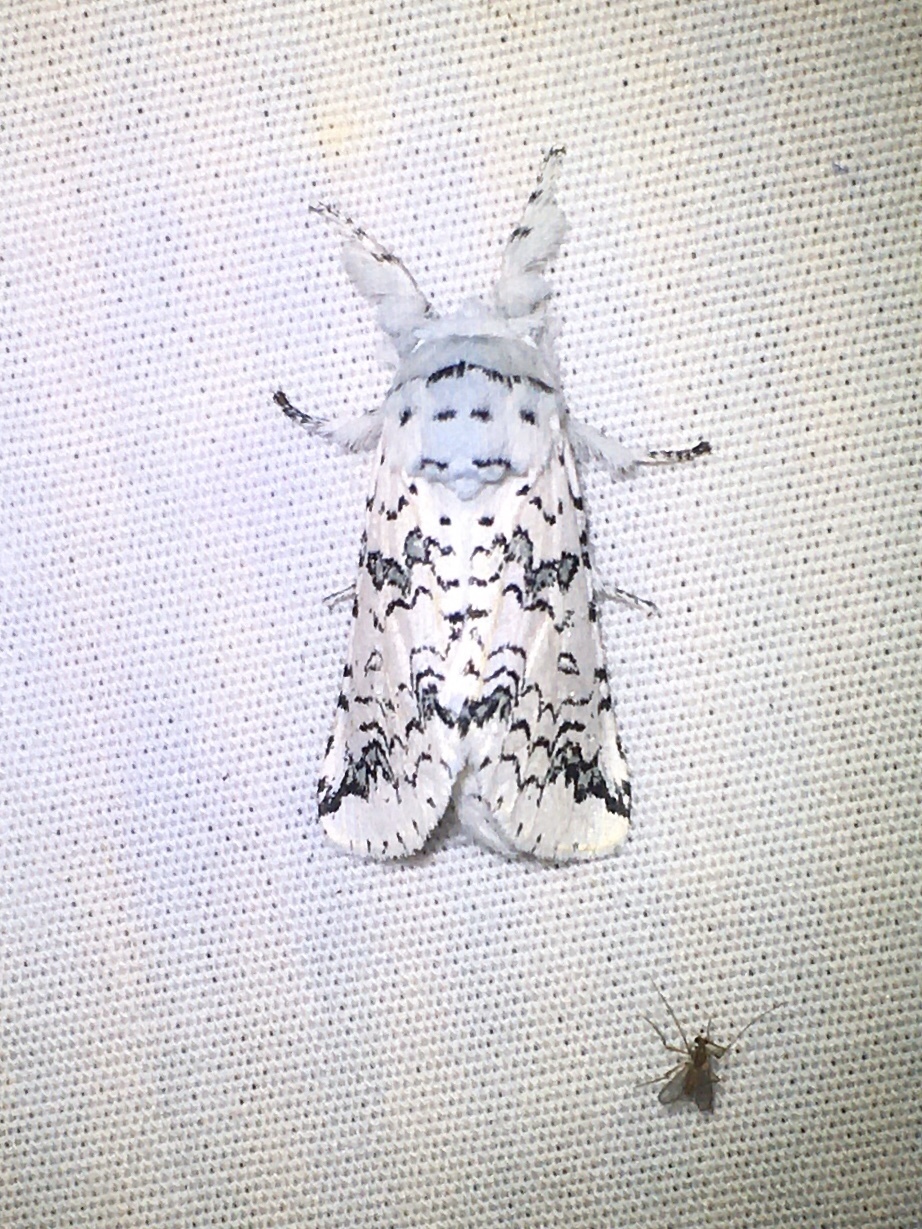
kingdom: Animalia
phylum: Arthropoda
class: Insecta
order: Lepidoptera
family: Notodontidae
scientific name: Notodontidae
